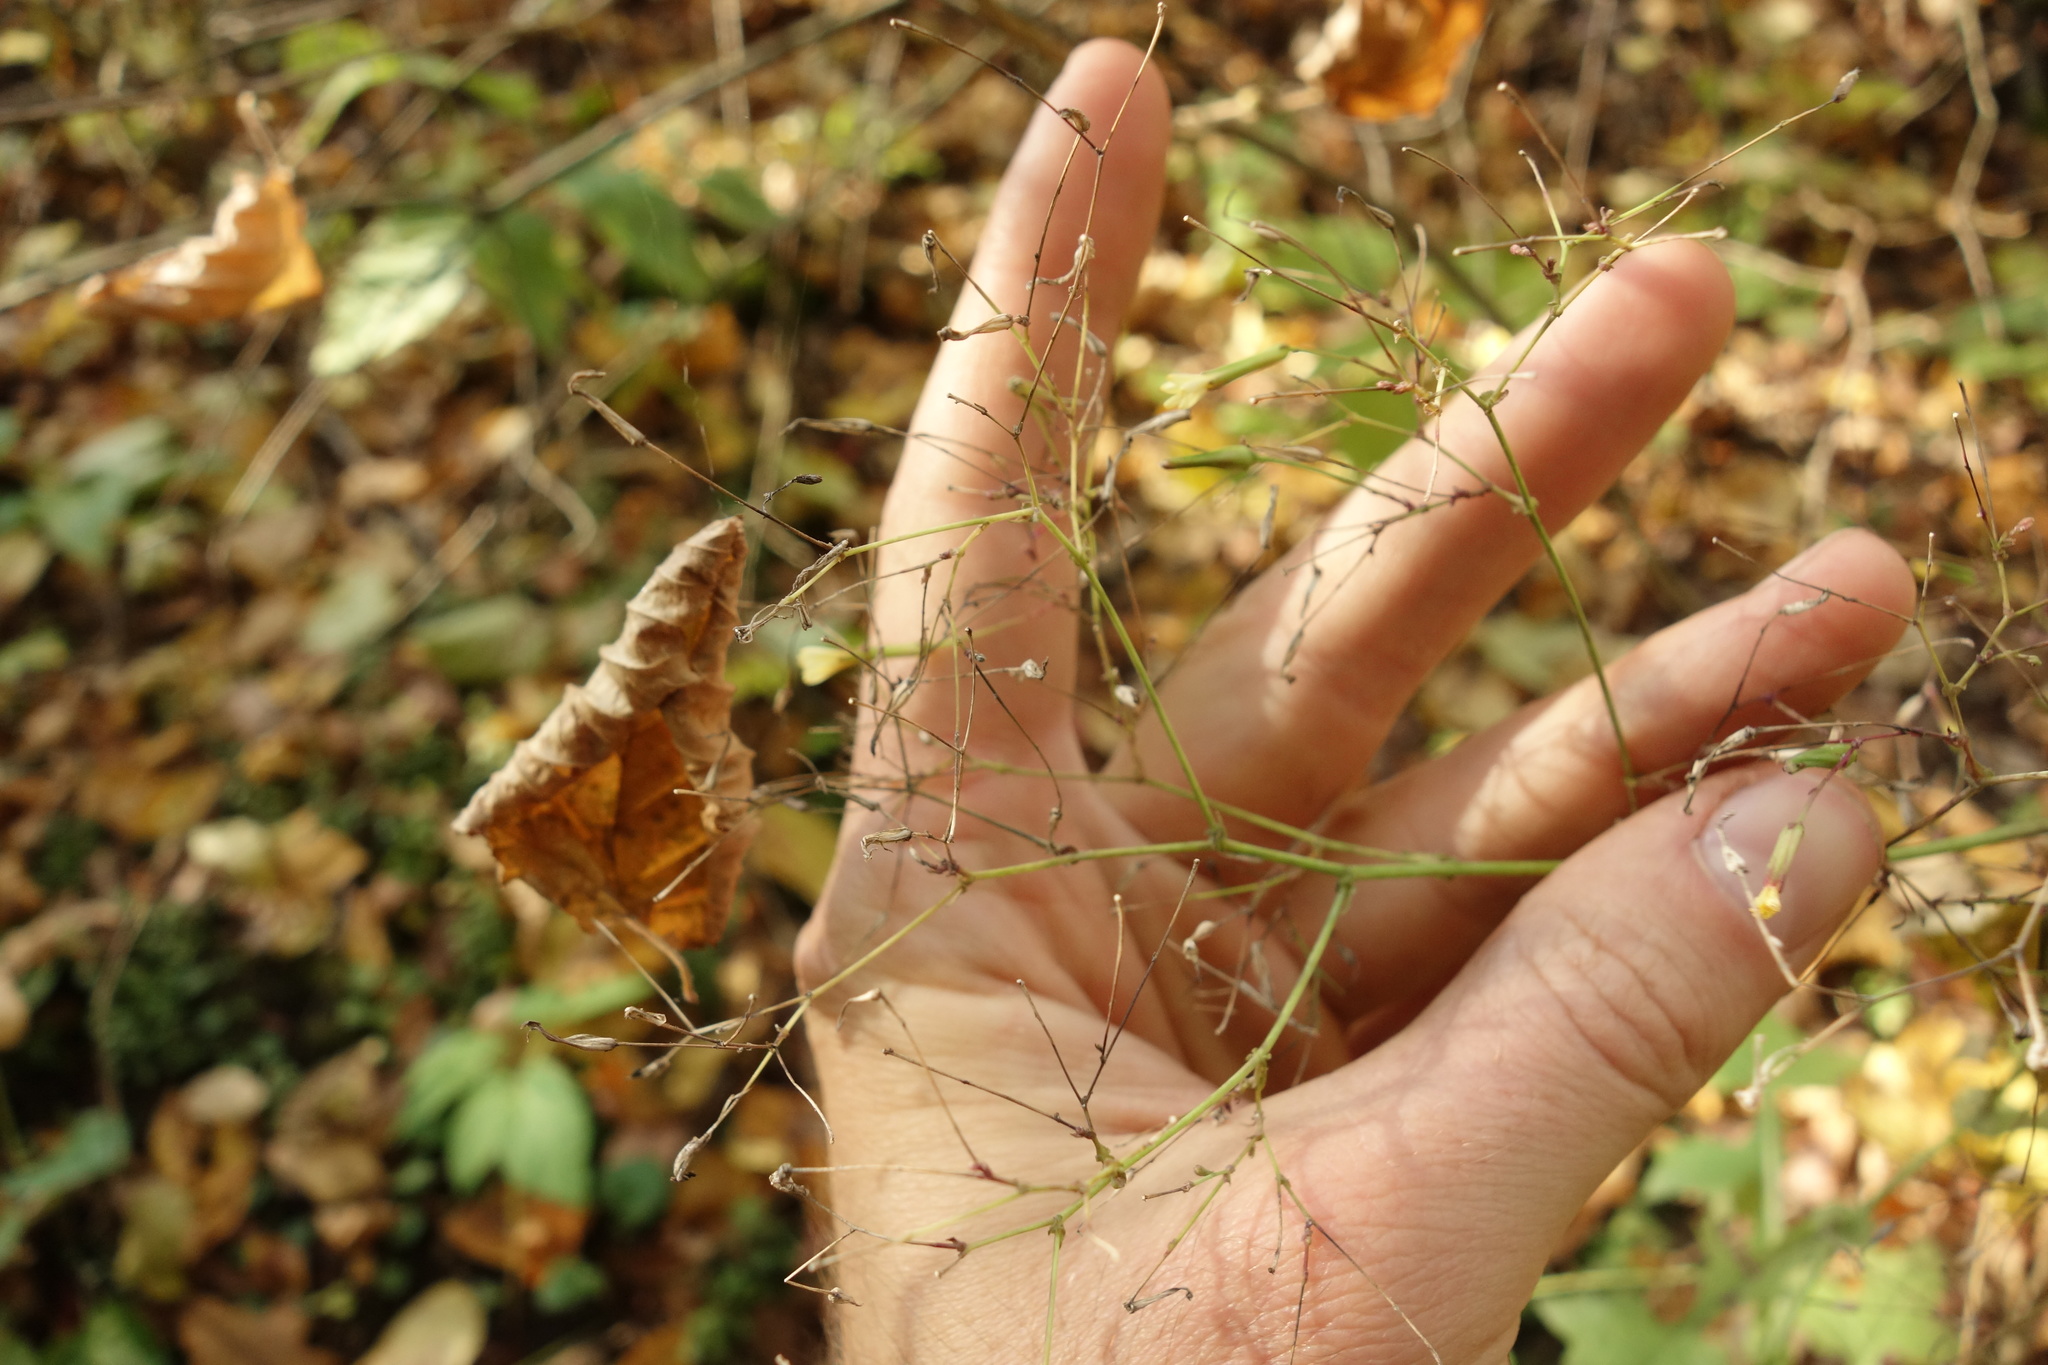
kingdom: Plantae
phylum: Tracheophyta
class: Magnoliopsida
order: Asterales
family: Asteraceae
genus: Mycelis
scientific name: Mycelis muralis
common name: Wall lettuce
